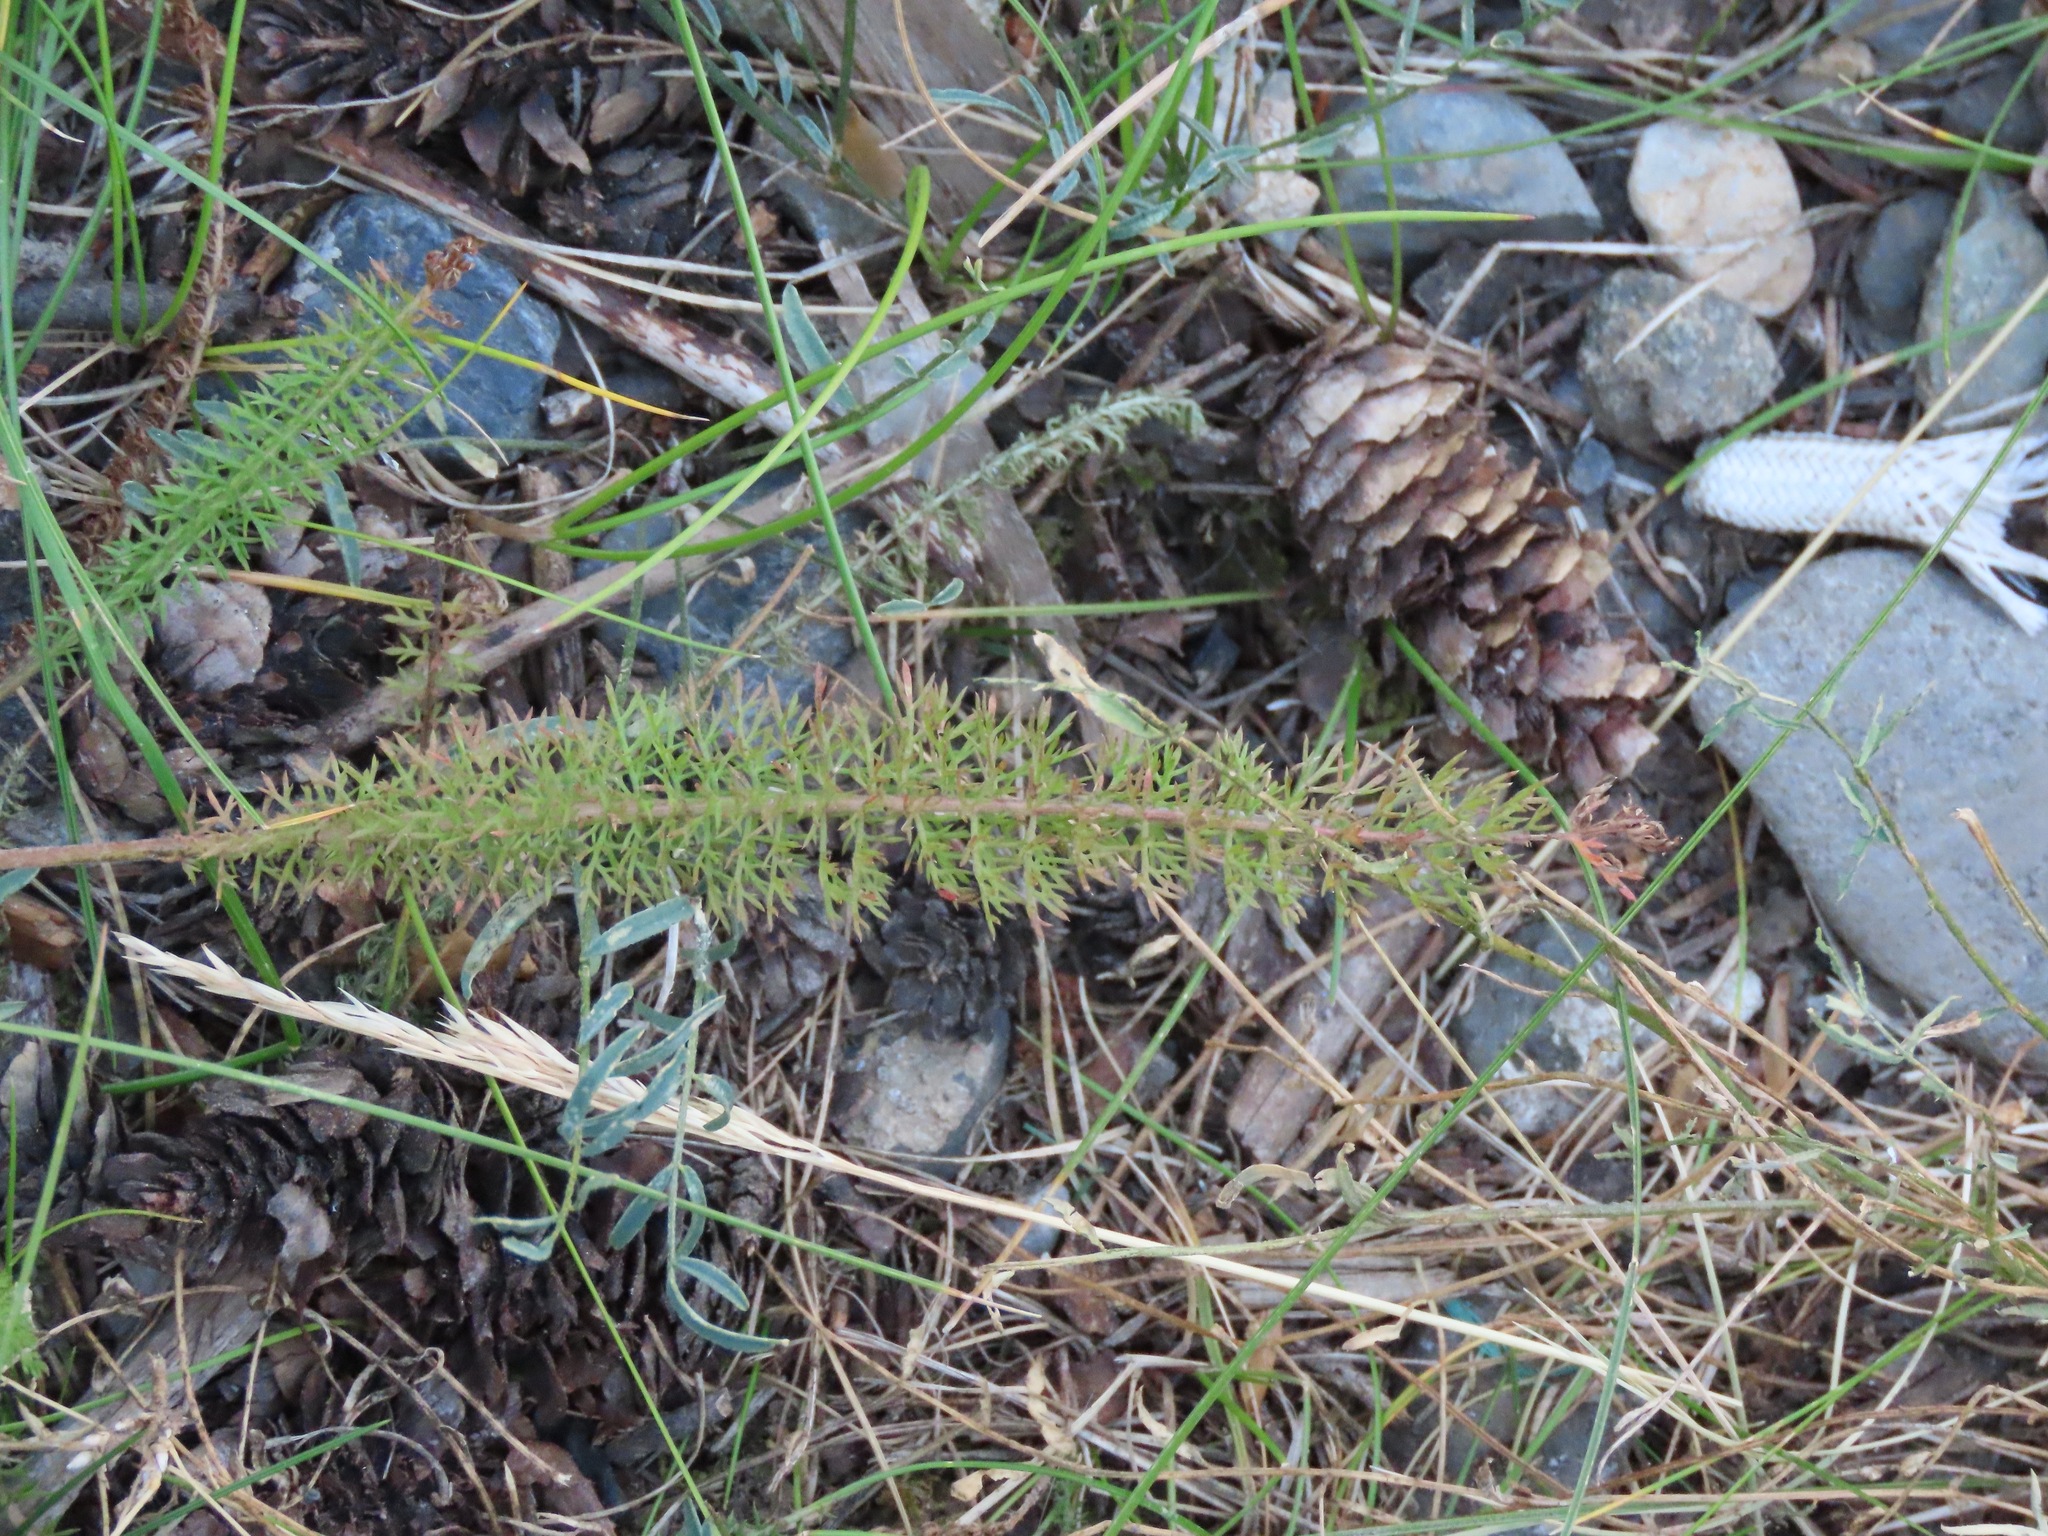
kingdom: Plantae
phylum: Tracheophyta
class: Magnoliopsida
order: Asterales
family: Asteraceae
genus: Achillea
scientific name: Achillea millefolium
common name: Yarrow
